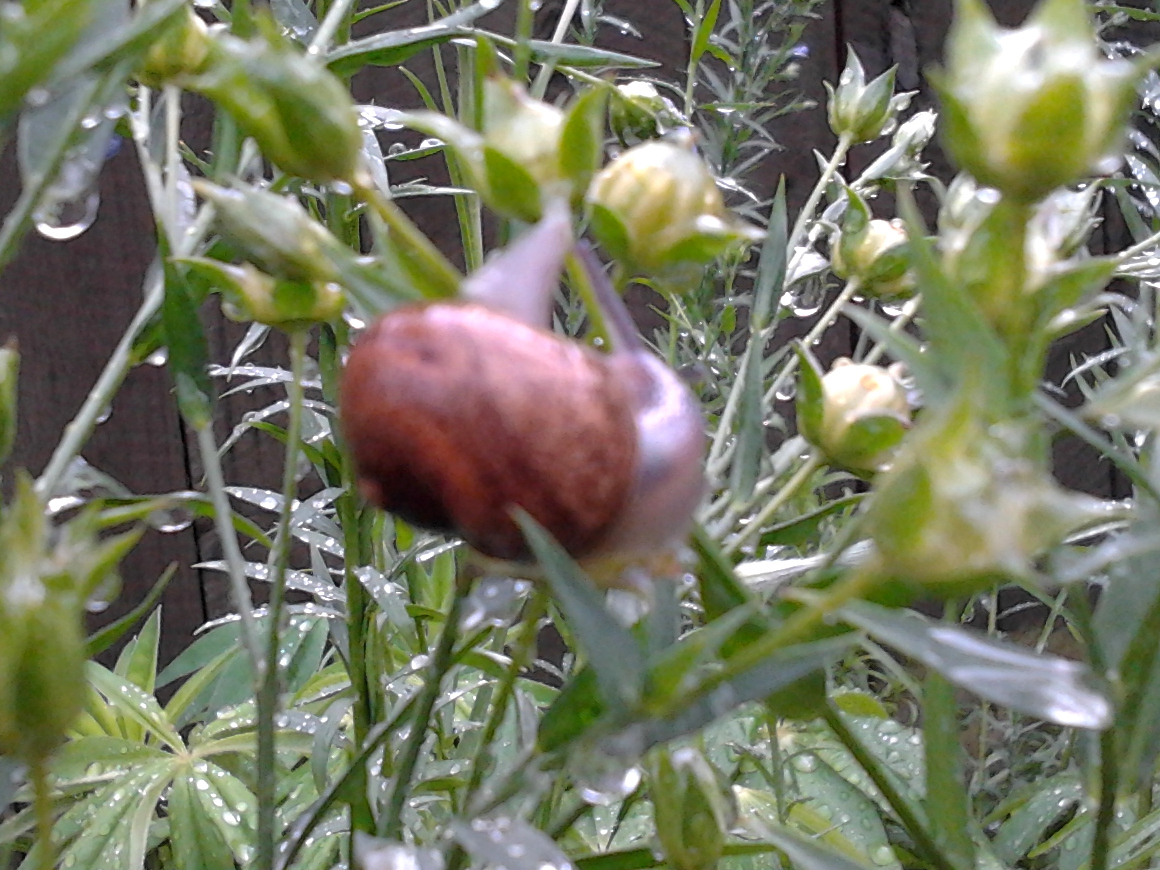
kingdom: Animalia
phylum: Mollusca
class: Gastropoda
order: Stylommatophora
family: Helicidae
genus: Cornu
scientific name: Cornu aspersum
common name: Brown garden snail
